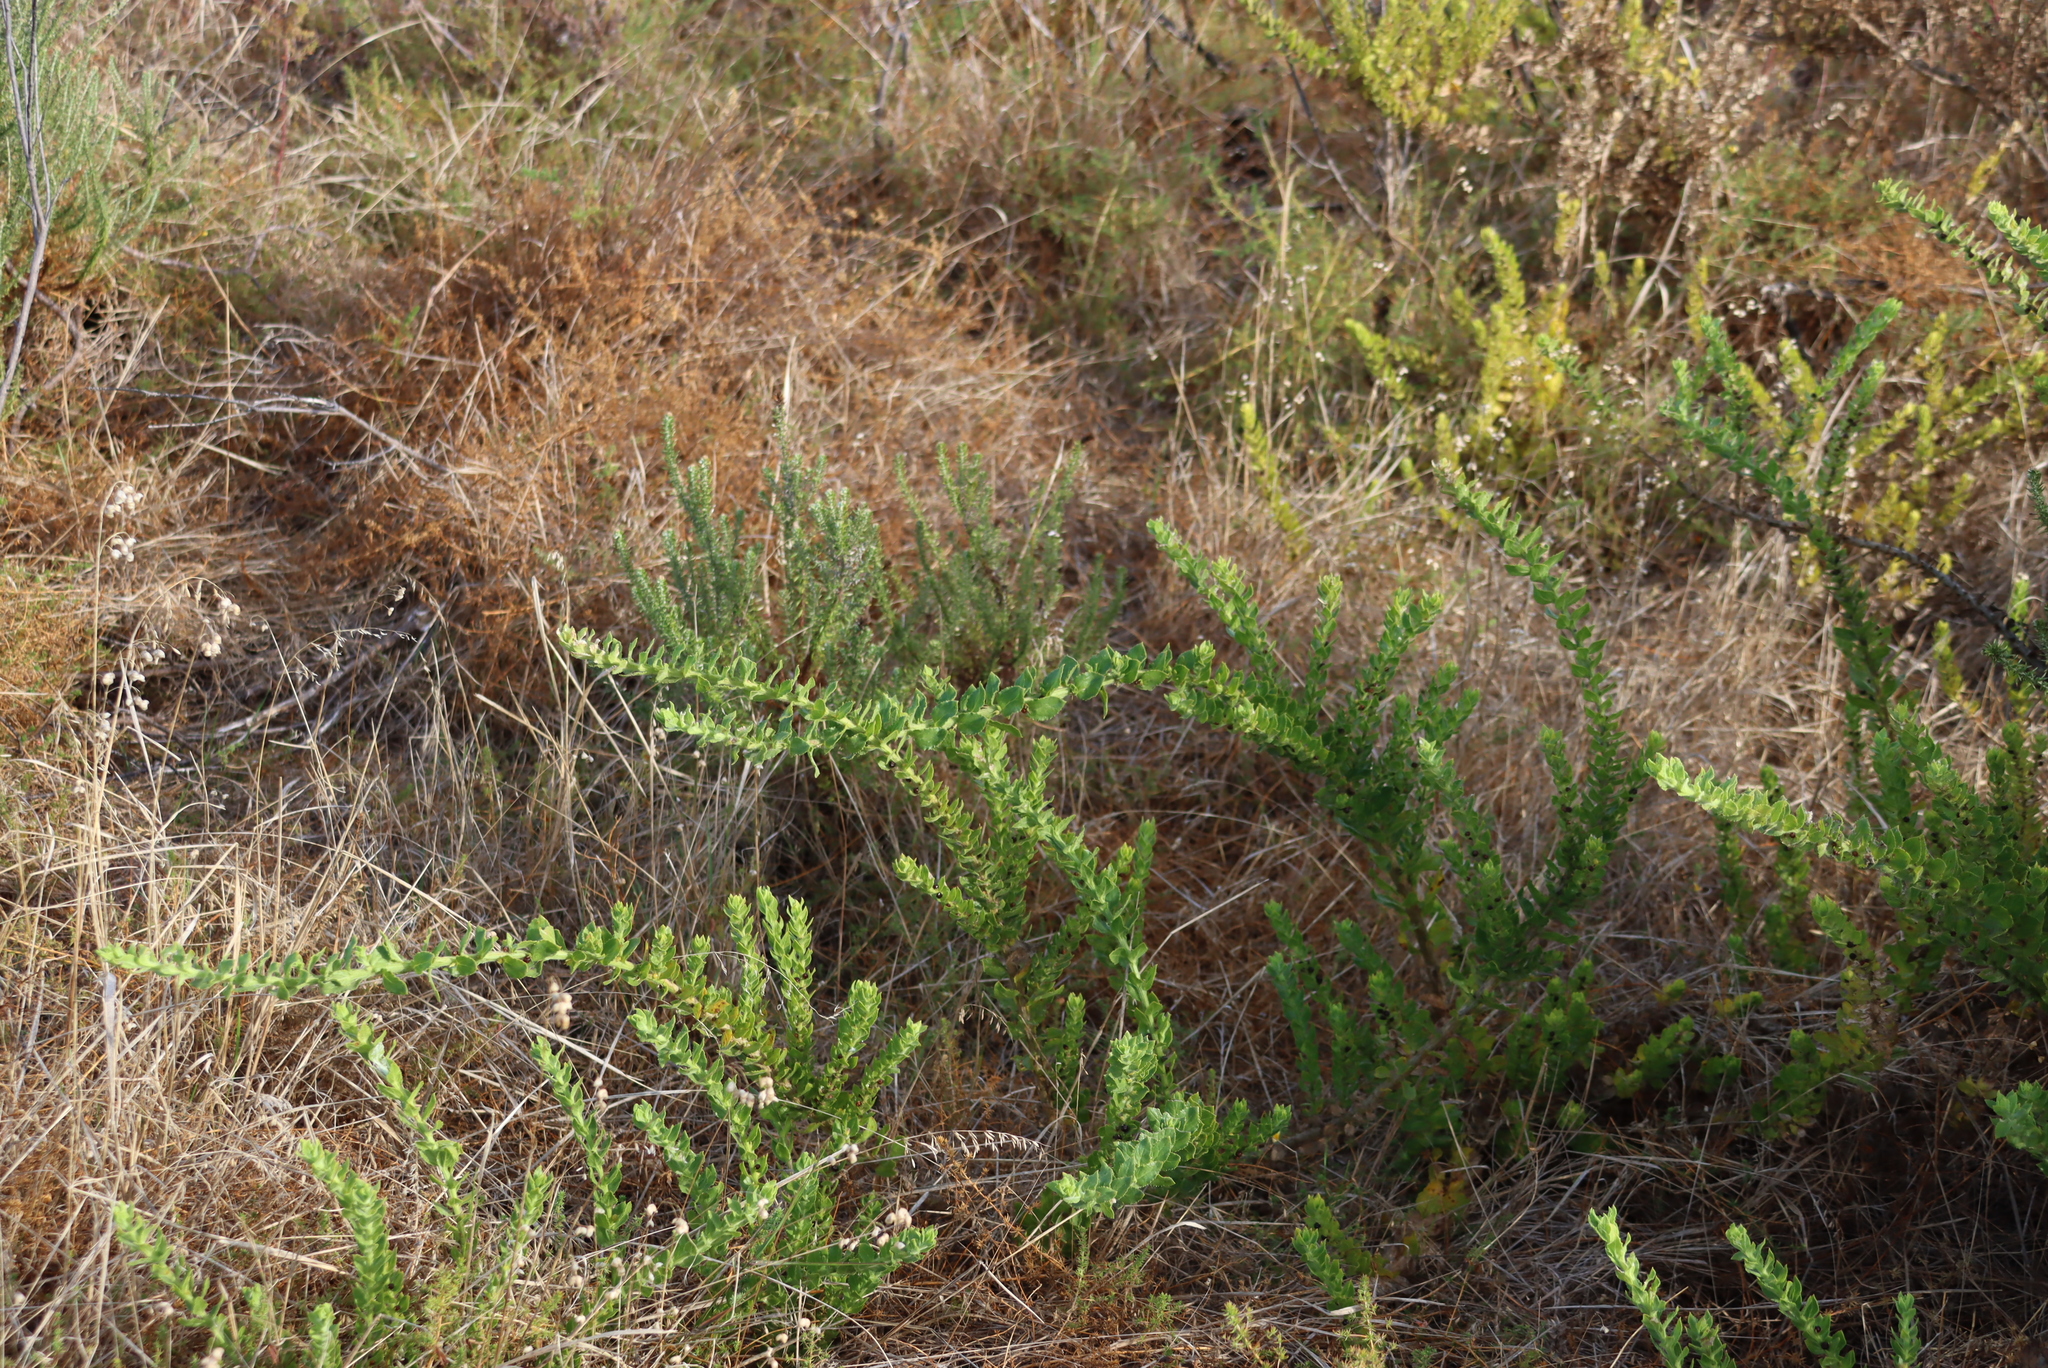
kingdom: Plantae
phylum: Tracheophyta
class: Magnoliopsida
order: Lamiales
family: Scrophulariaceae
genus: Oftia
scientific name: Oftia africana
